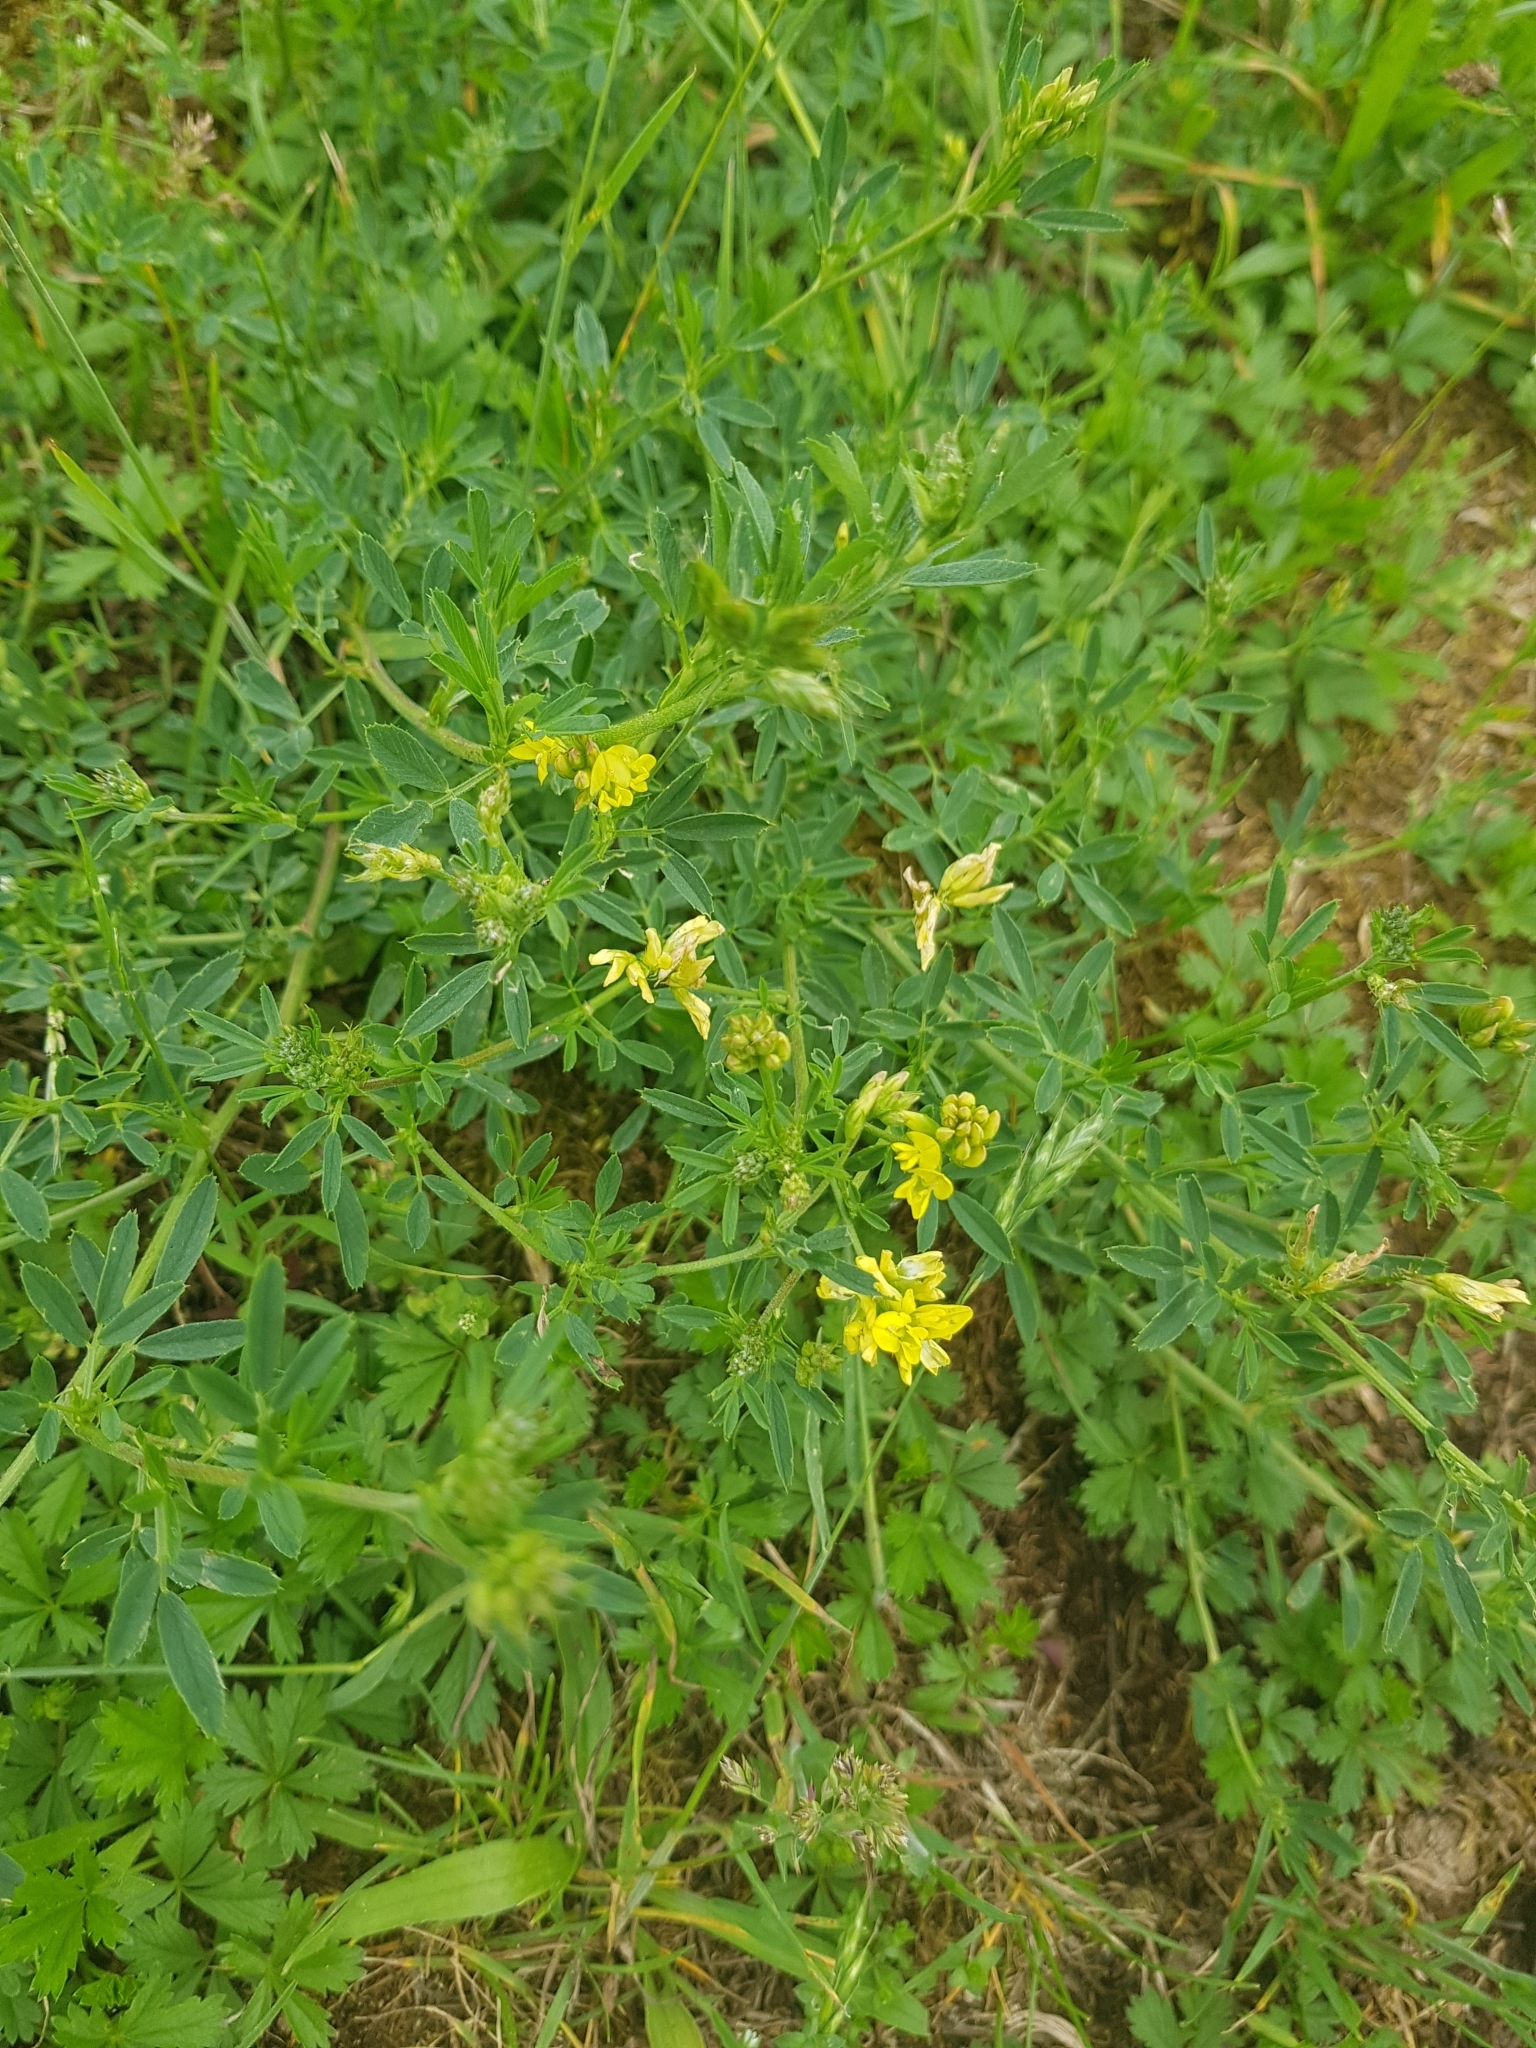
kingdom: Plantae
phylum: Tracheophyta
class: Magnoliopsida
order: Fabales
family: Fabaceae
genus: Medicago
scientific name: Medicago falcata
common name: Sickle medick
